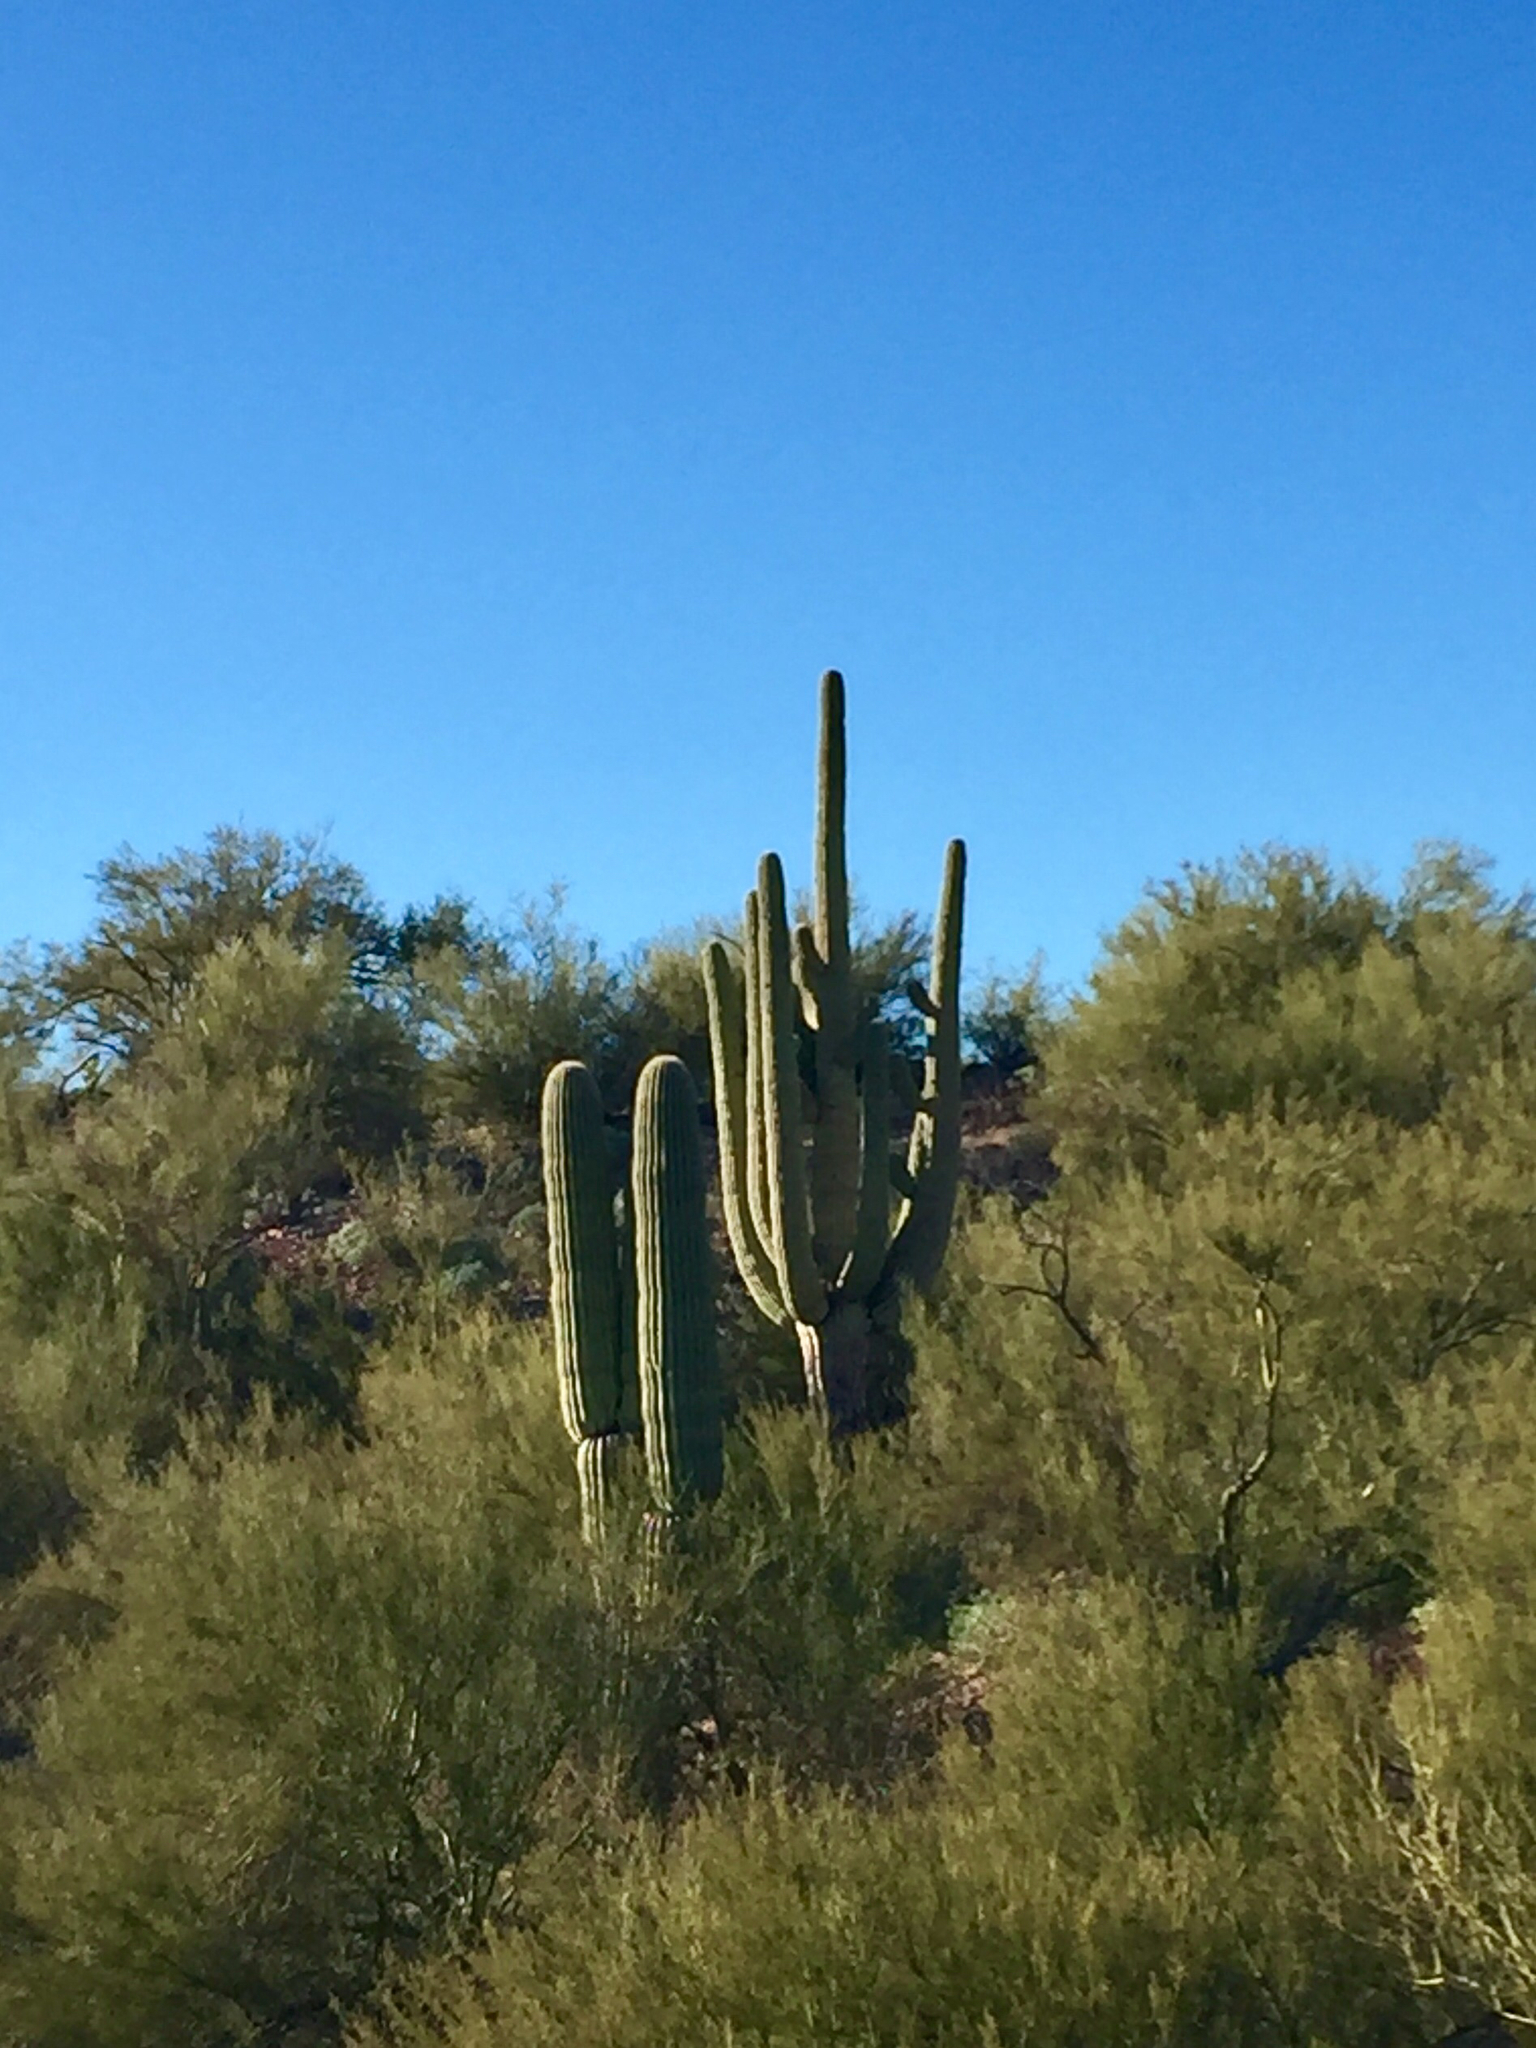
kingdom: Plantae
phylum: Tracheophyta
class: Magnoliopsida
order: Caryophyllales
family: Cactaceae
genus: Carnegiea
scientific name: Carnegiea gigantea
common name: Saguaro
